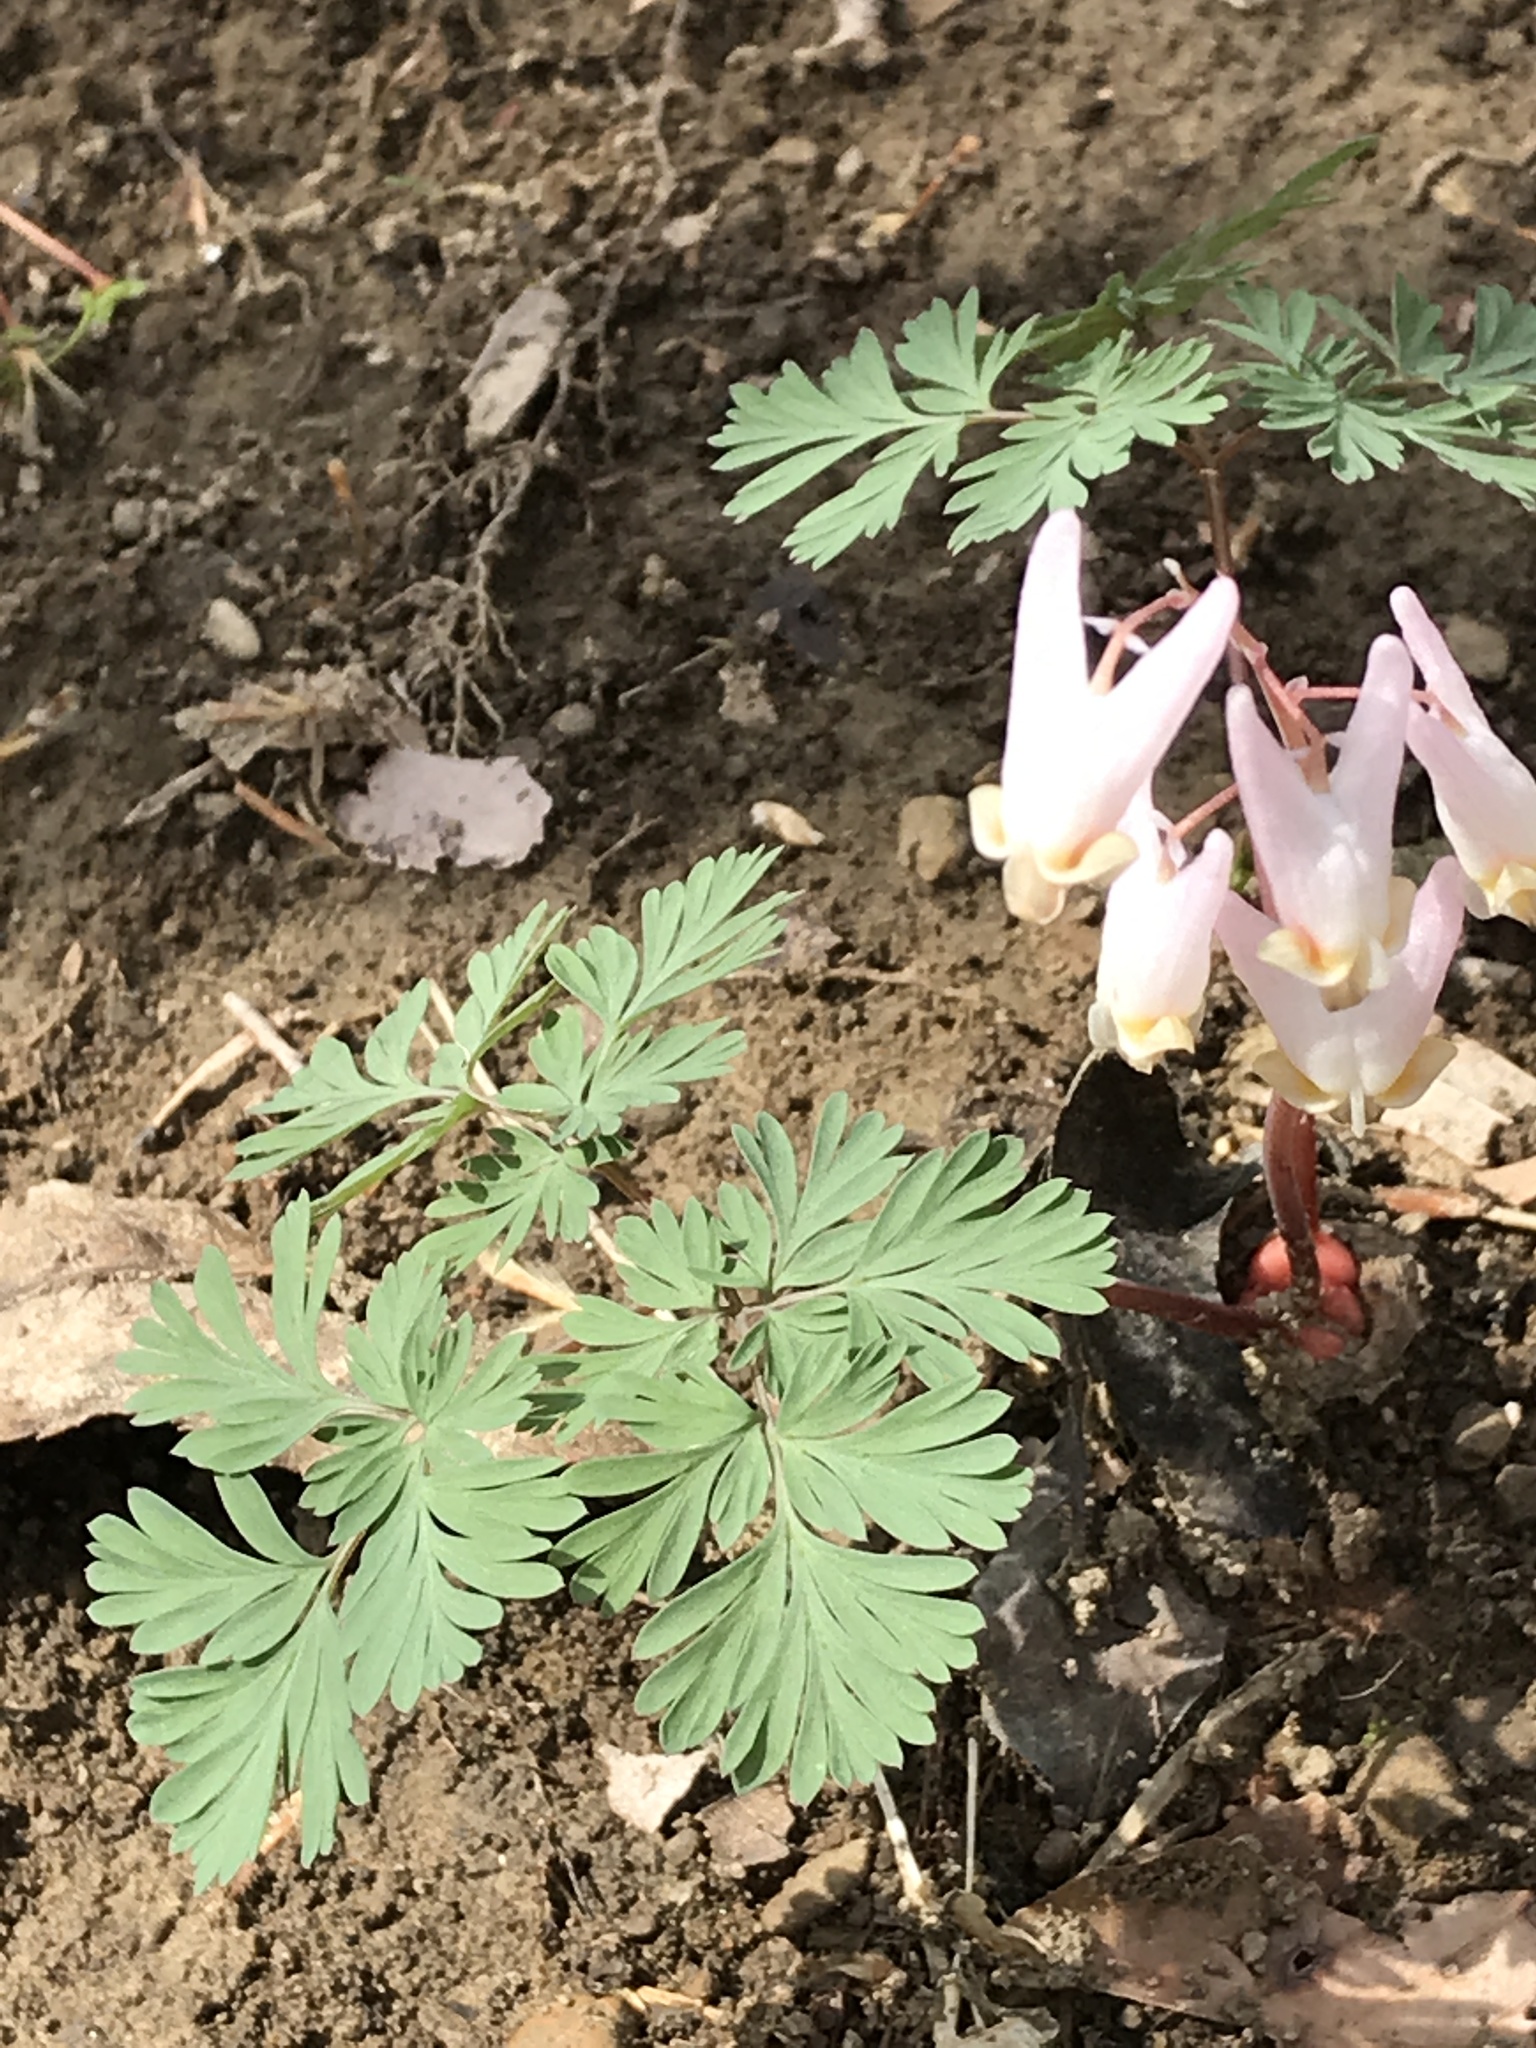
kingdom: Plantae
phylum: Tracheophyta
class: Magnoliopsida
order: Ranunculales
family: Papaveraceae
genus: Dicentra
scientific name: Dicentra cucullaria
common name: Dutchman's breeches
